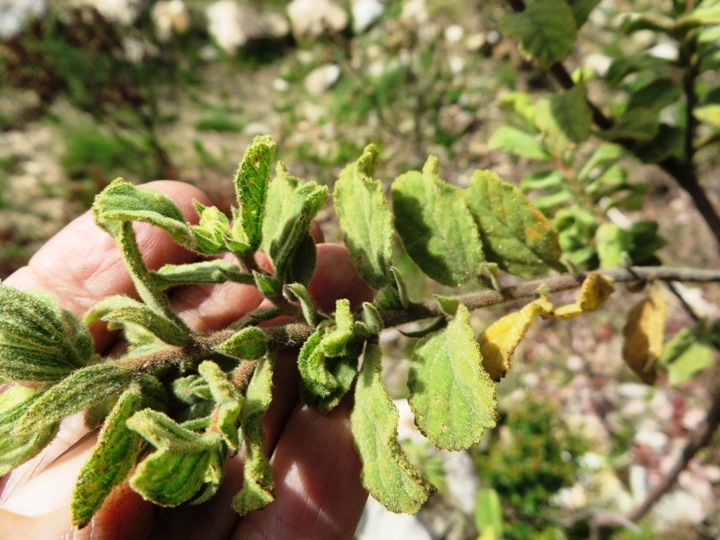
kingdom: Plantae
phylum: Tracheophyta
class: Magnoliopsida
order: Malvales
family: Malvaceae
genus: Hermannia
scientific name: Hermannia hyssopifolia
